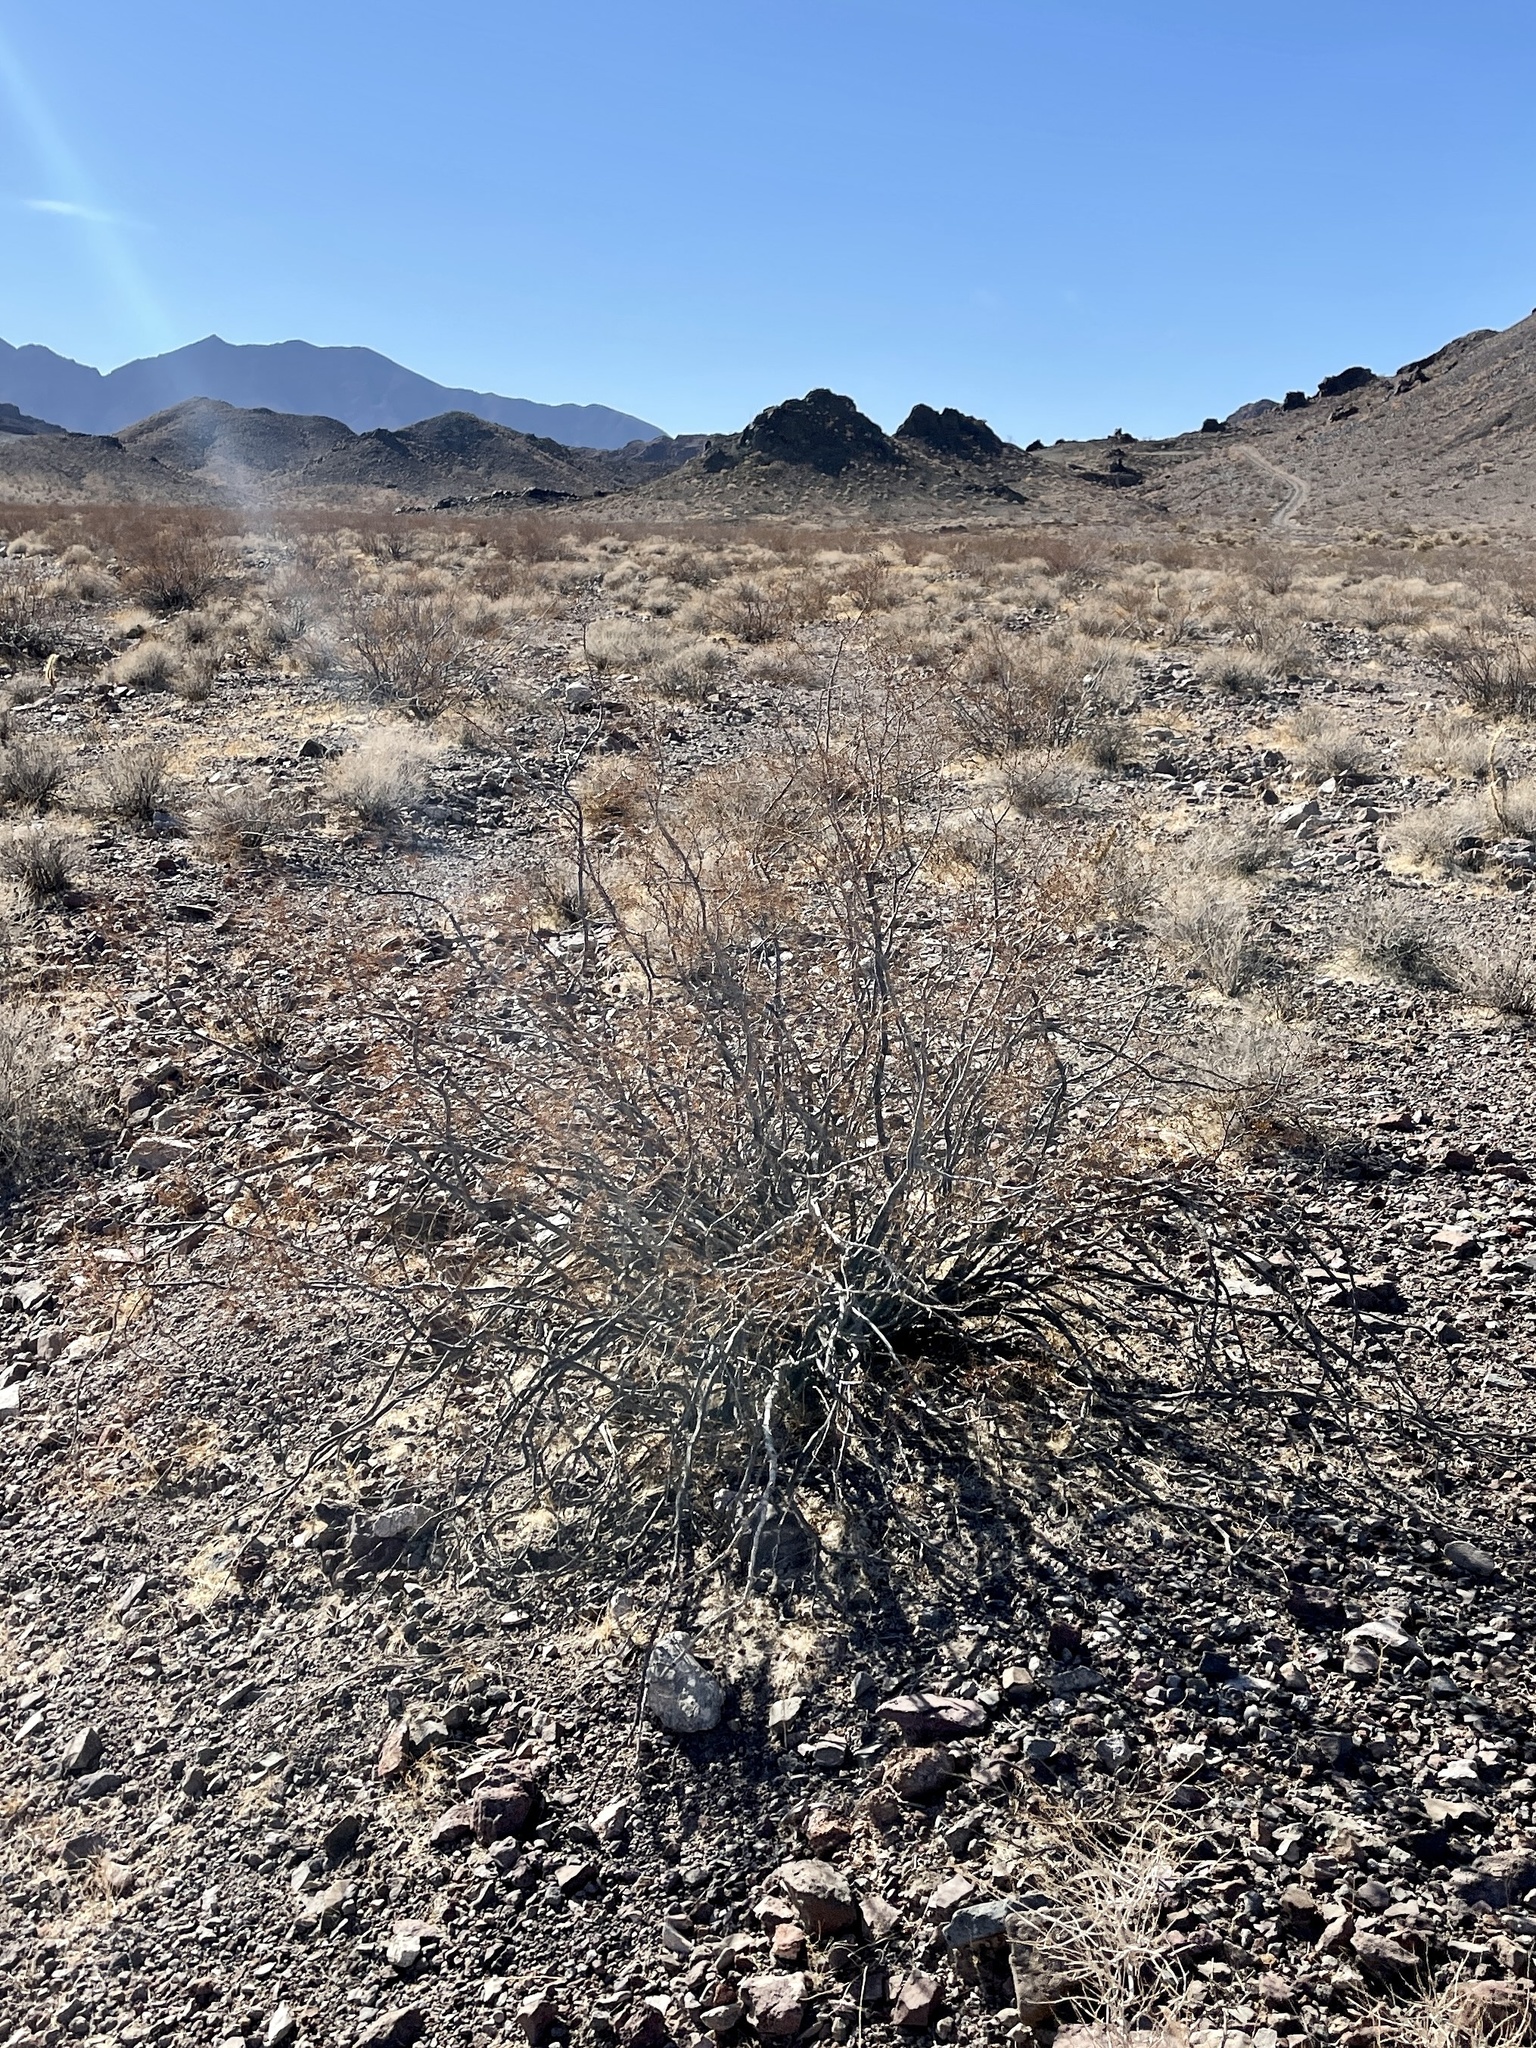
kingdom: Plantae
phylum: Tracheophyta
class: Magnoliopsida
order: Zygophyllales
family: Zygophyllaceae
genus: Larrea
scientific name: Larrea tridentata
